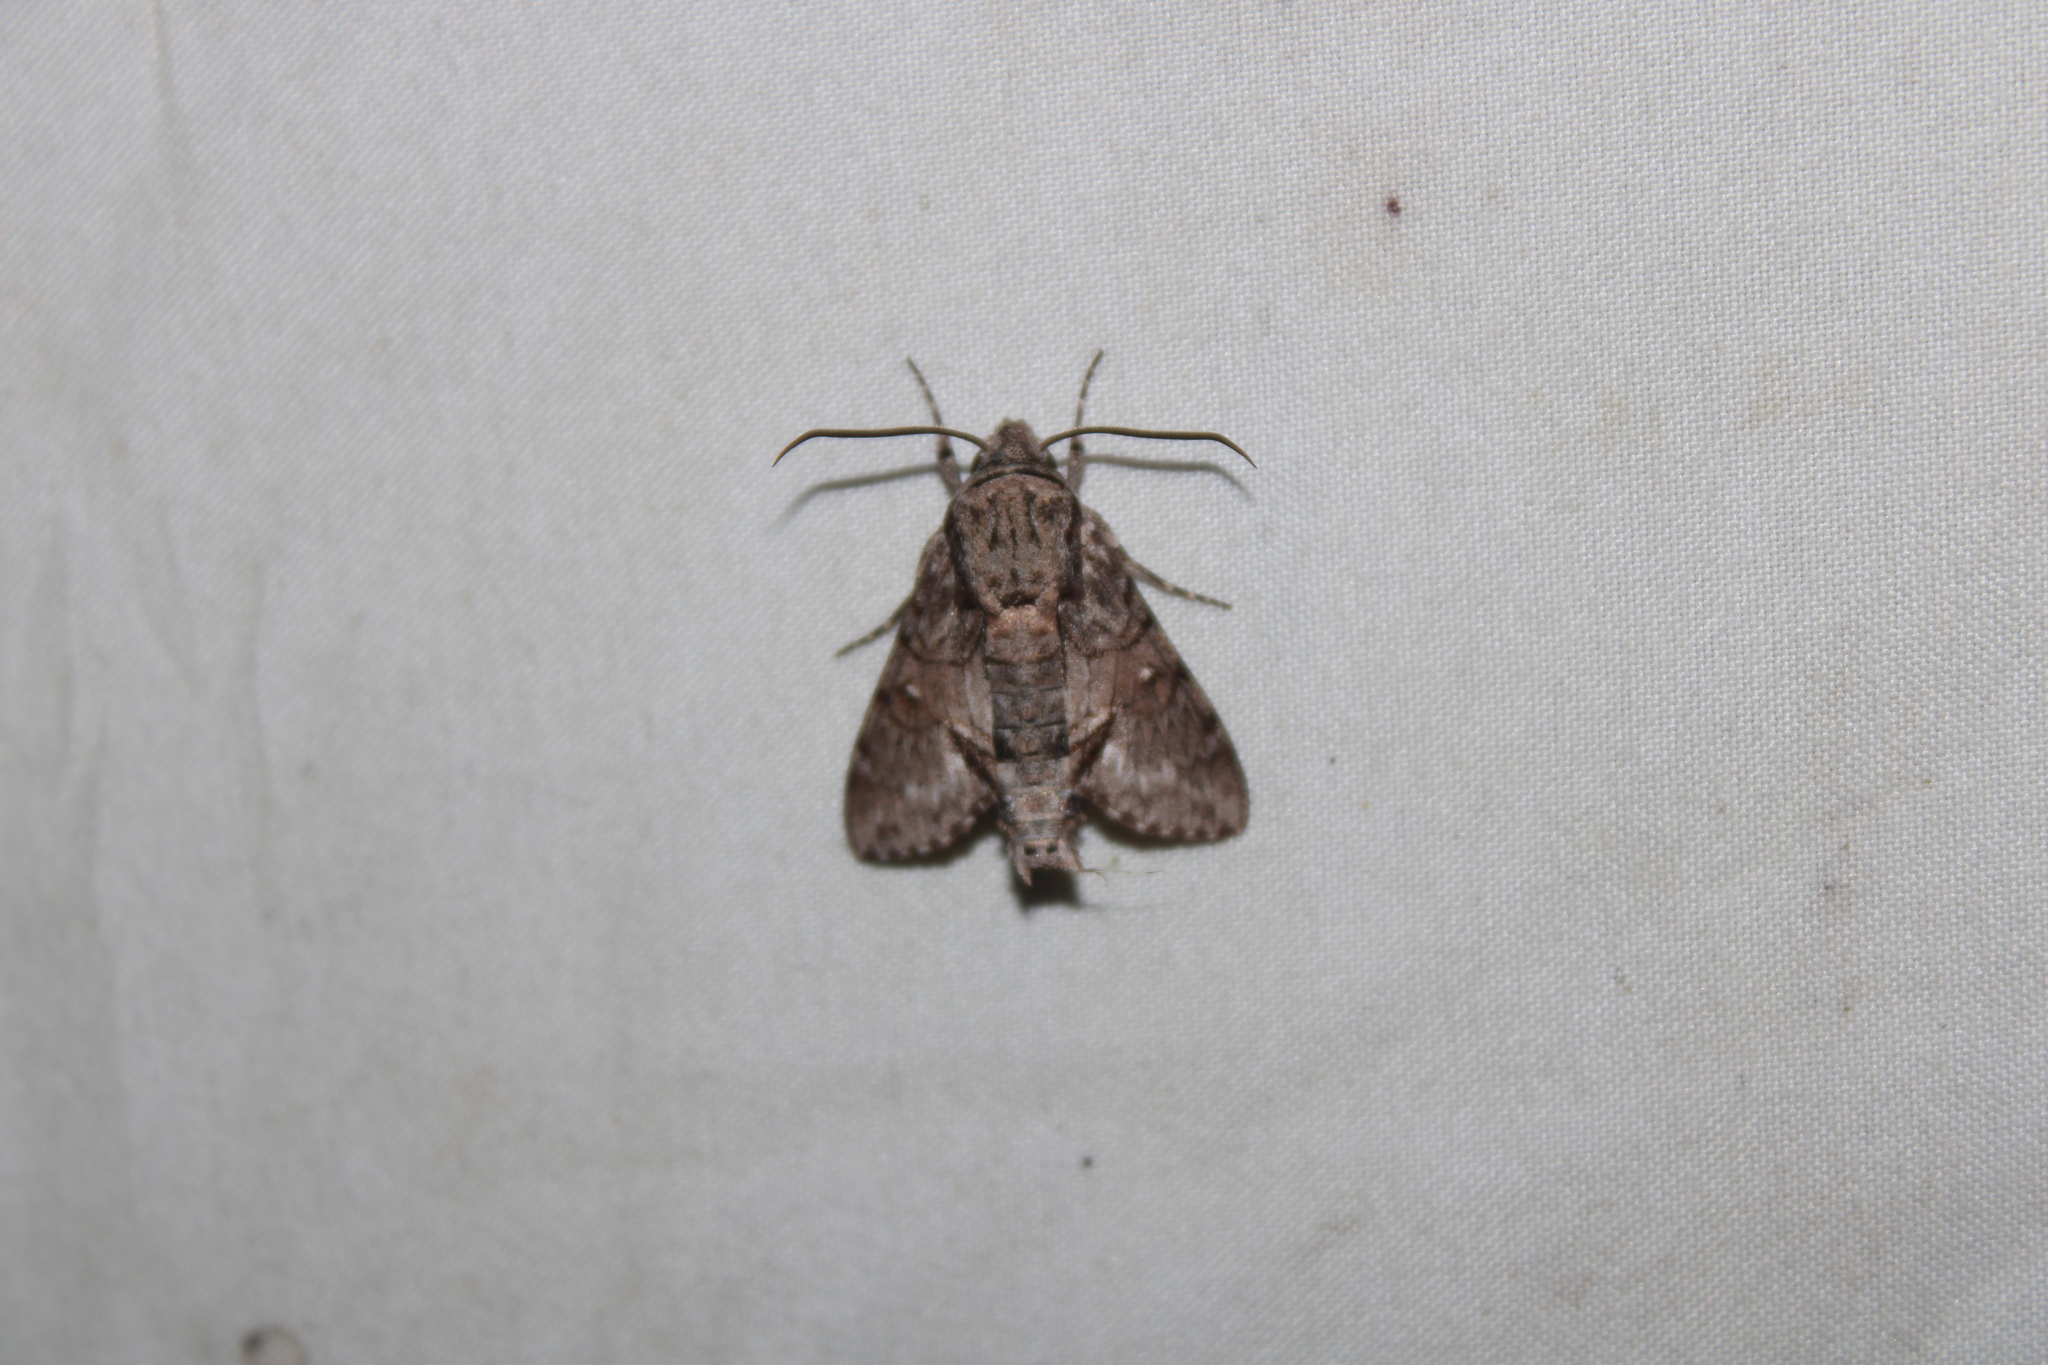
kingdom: Animalia
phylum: Arthropoda
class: Insecta
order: Lepidoptera
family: Sphingidae
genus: Cautethia
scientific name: Cautethia grotei
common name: Grote's sphinx
